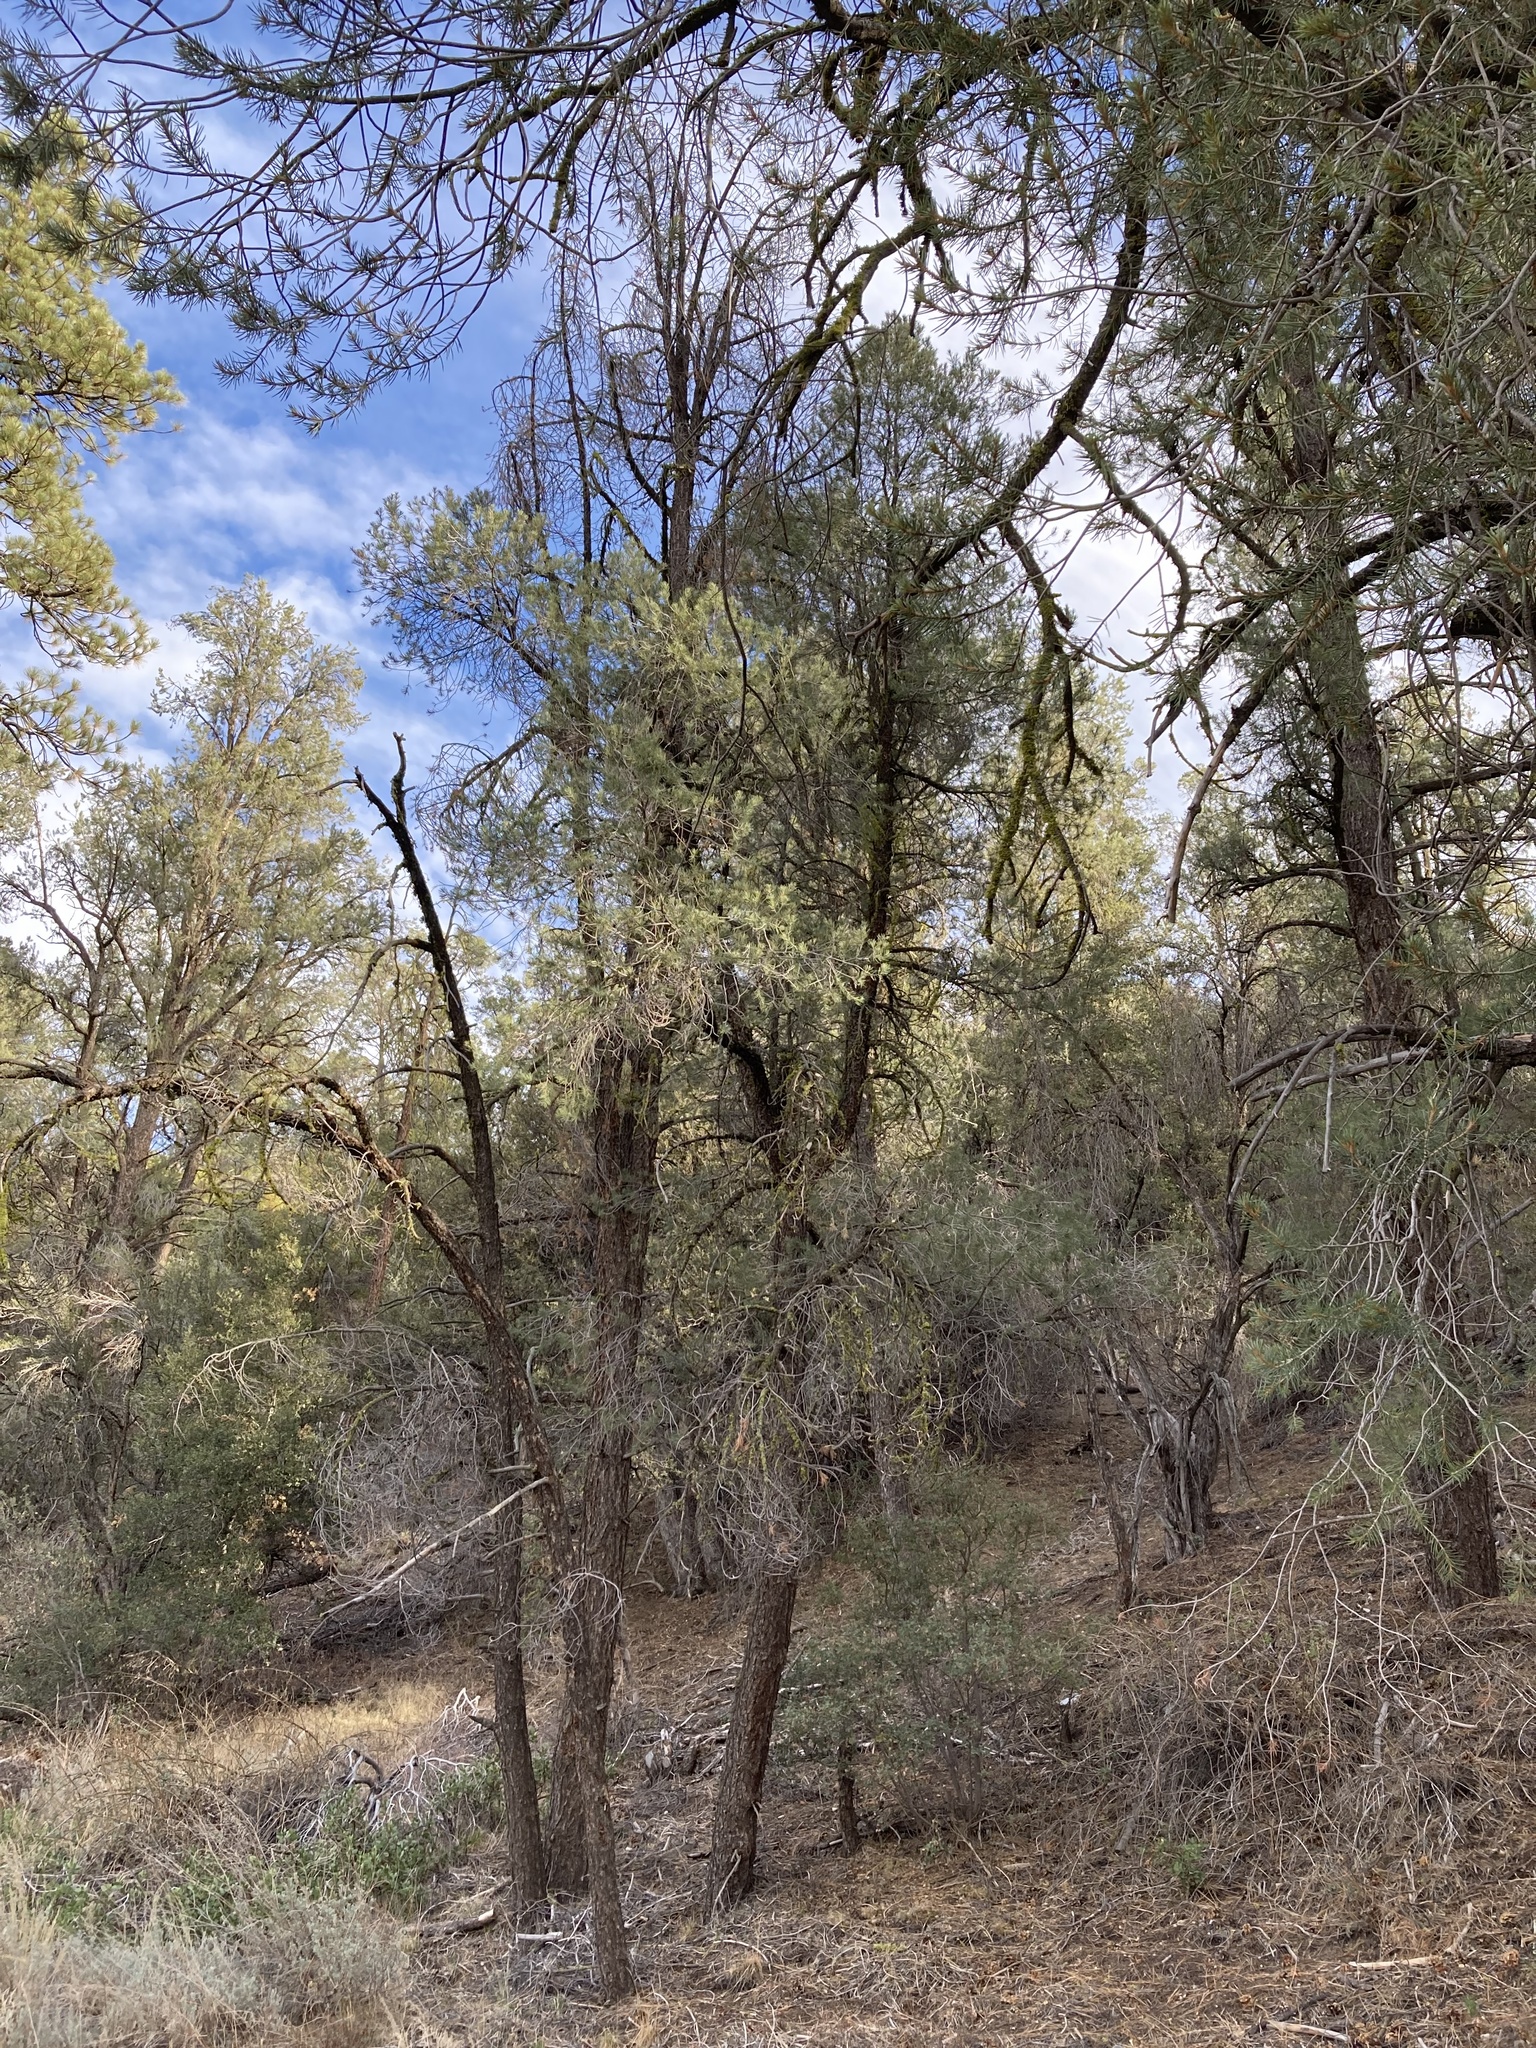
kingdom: Plantae
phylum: Tracheophyta
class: Pinopsida
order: Pinales
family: Pinaceae
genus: Pinus
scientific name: Pinus monophylla
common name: One-leaved nut pine
